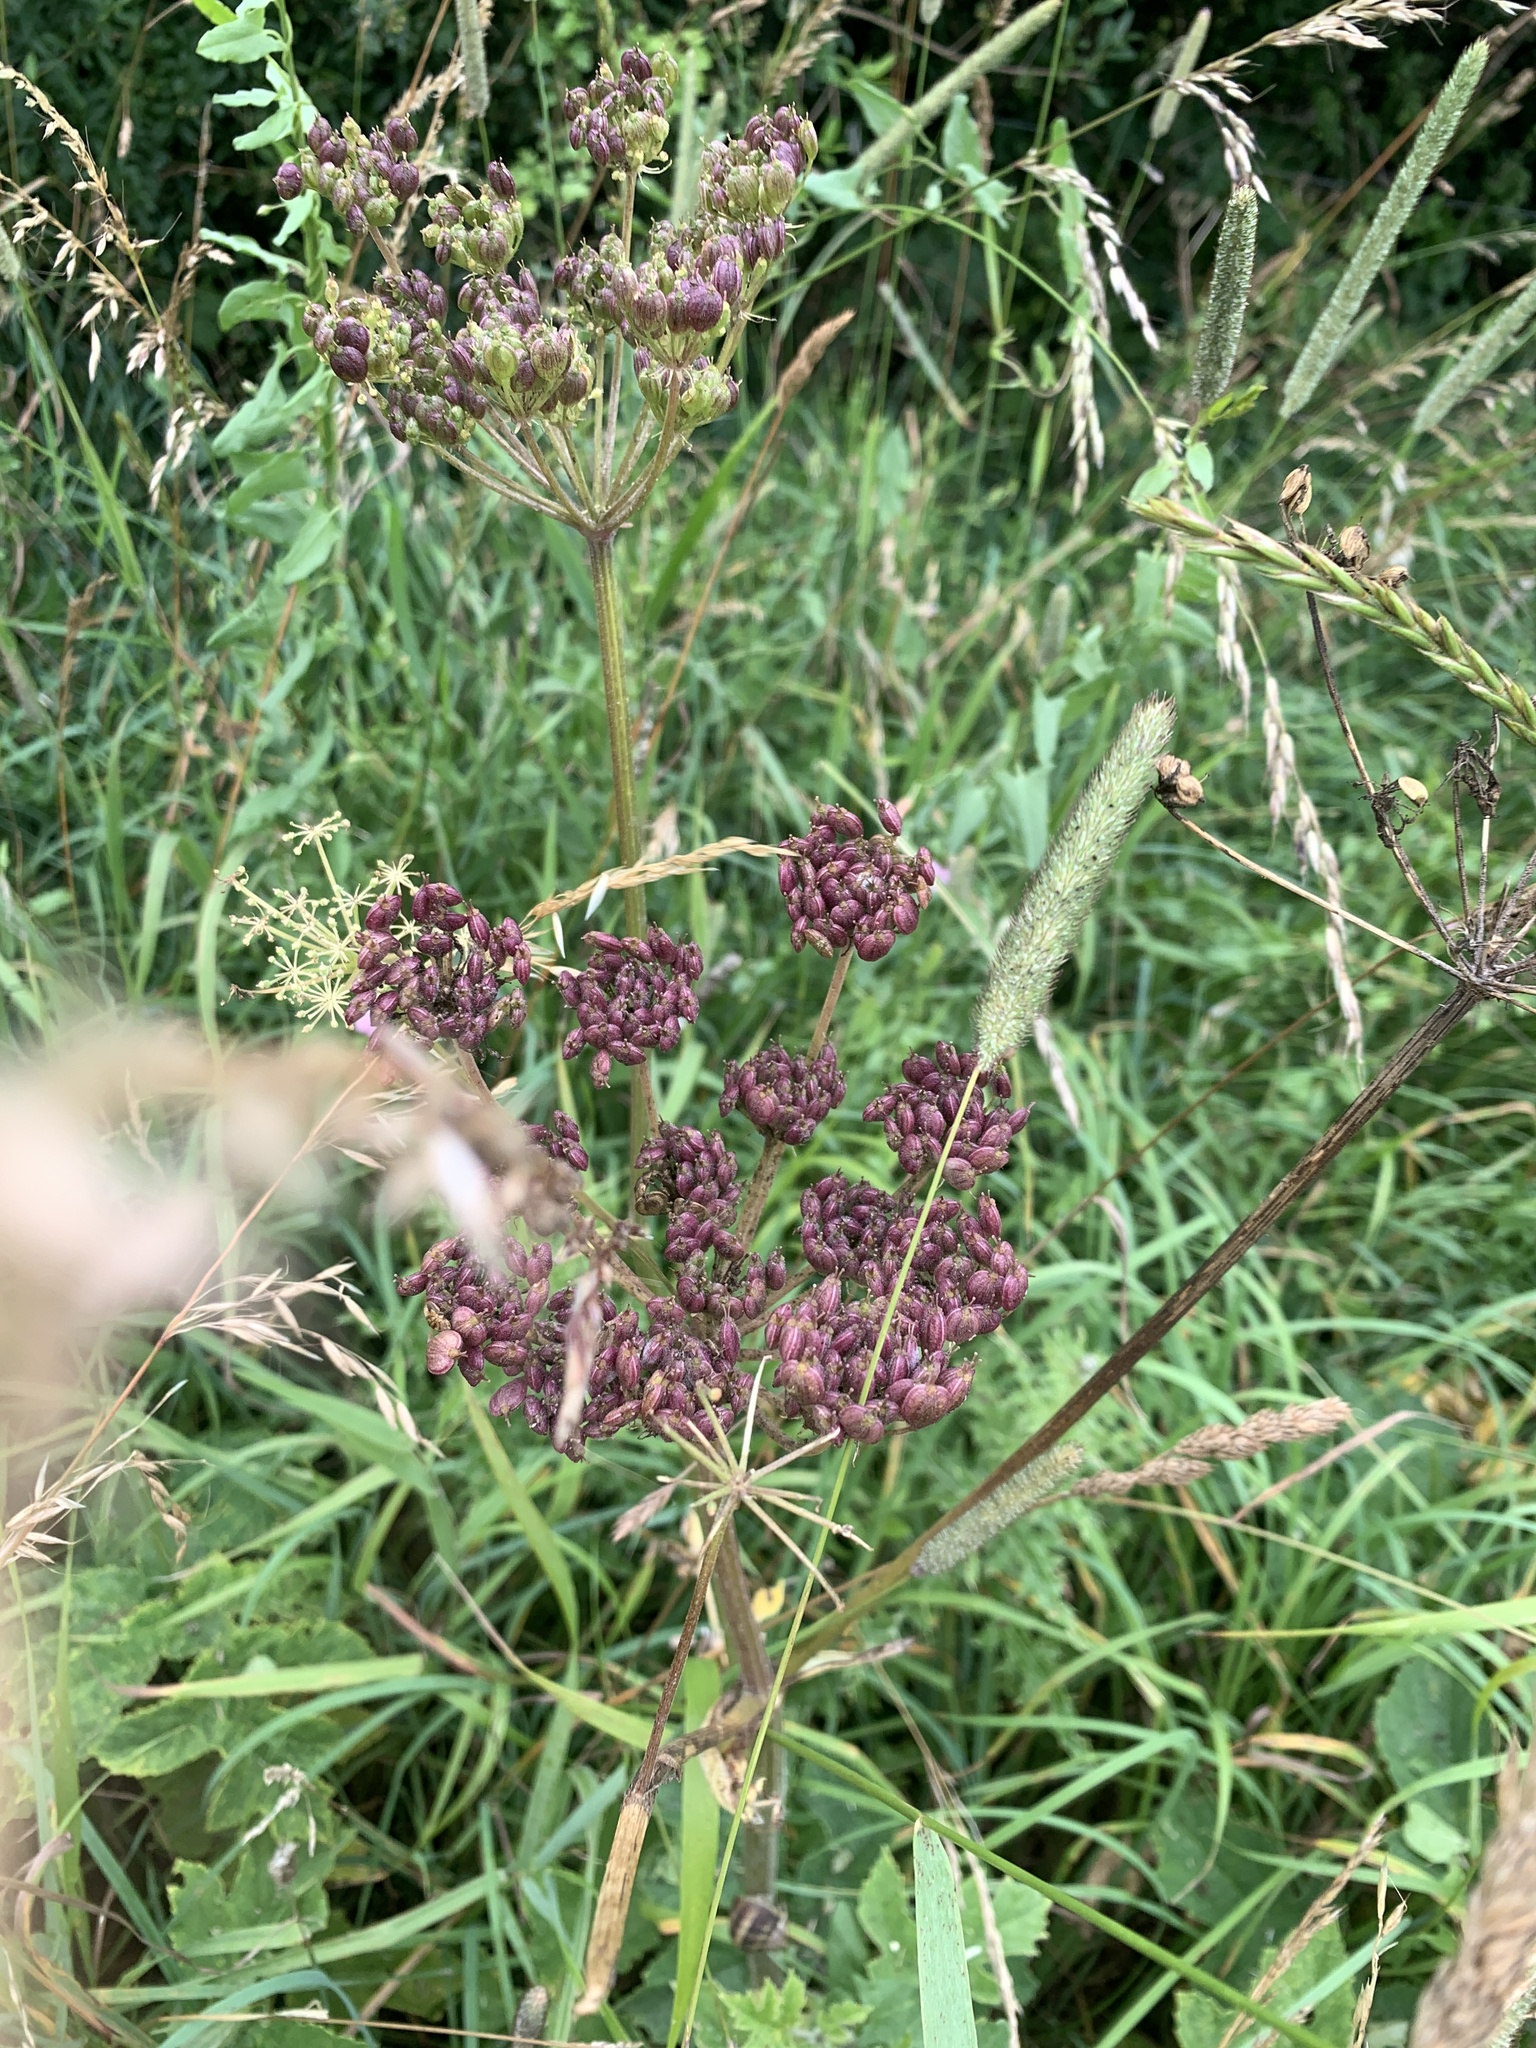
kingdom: Plantae
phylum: Tracheophyta
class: Magnoliopsida
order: Apiales
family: Apiaceae
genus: Heracleum
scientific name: Heracleum sphondylium
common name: Hogweed
